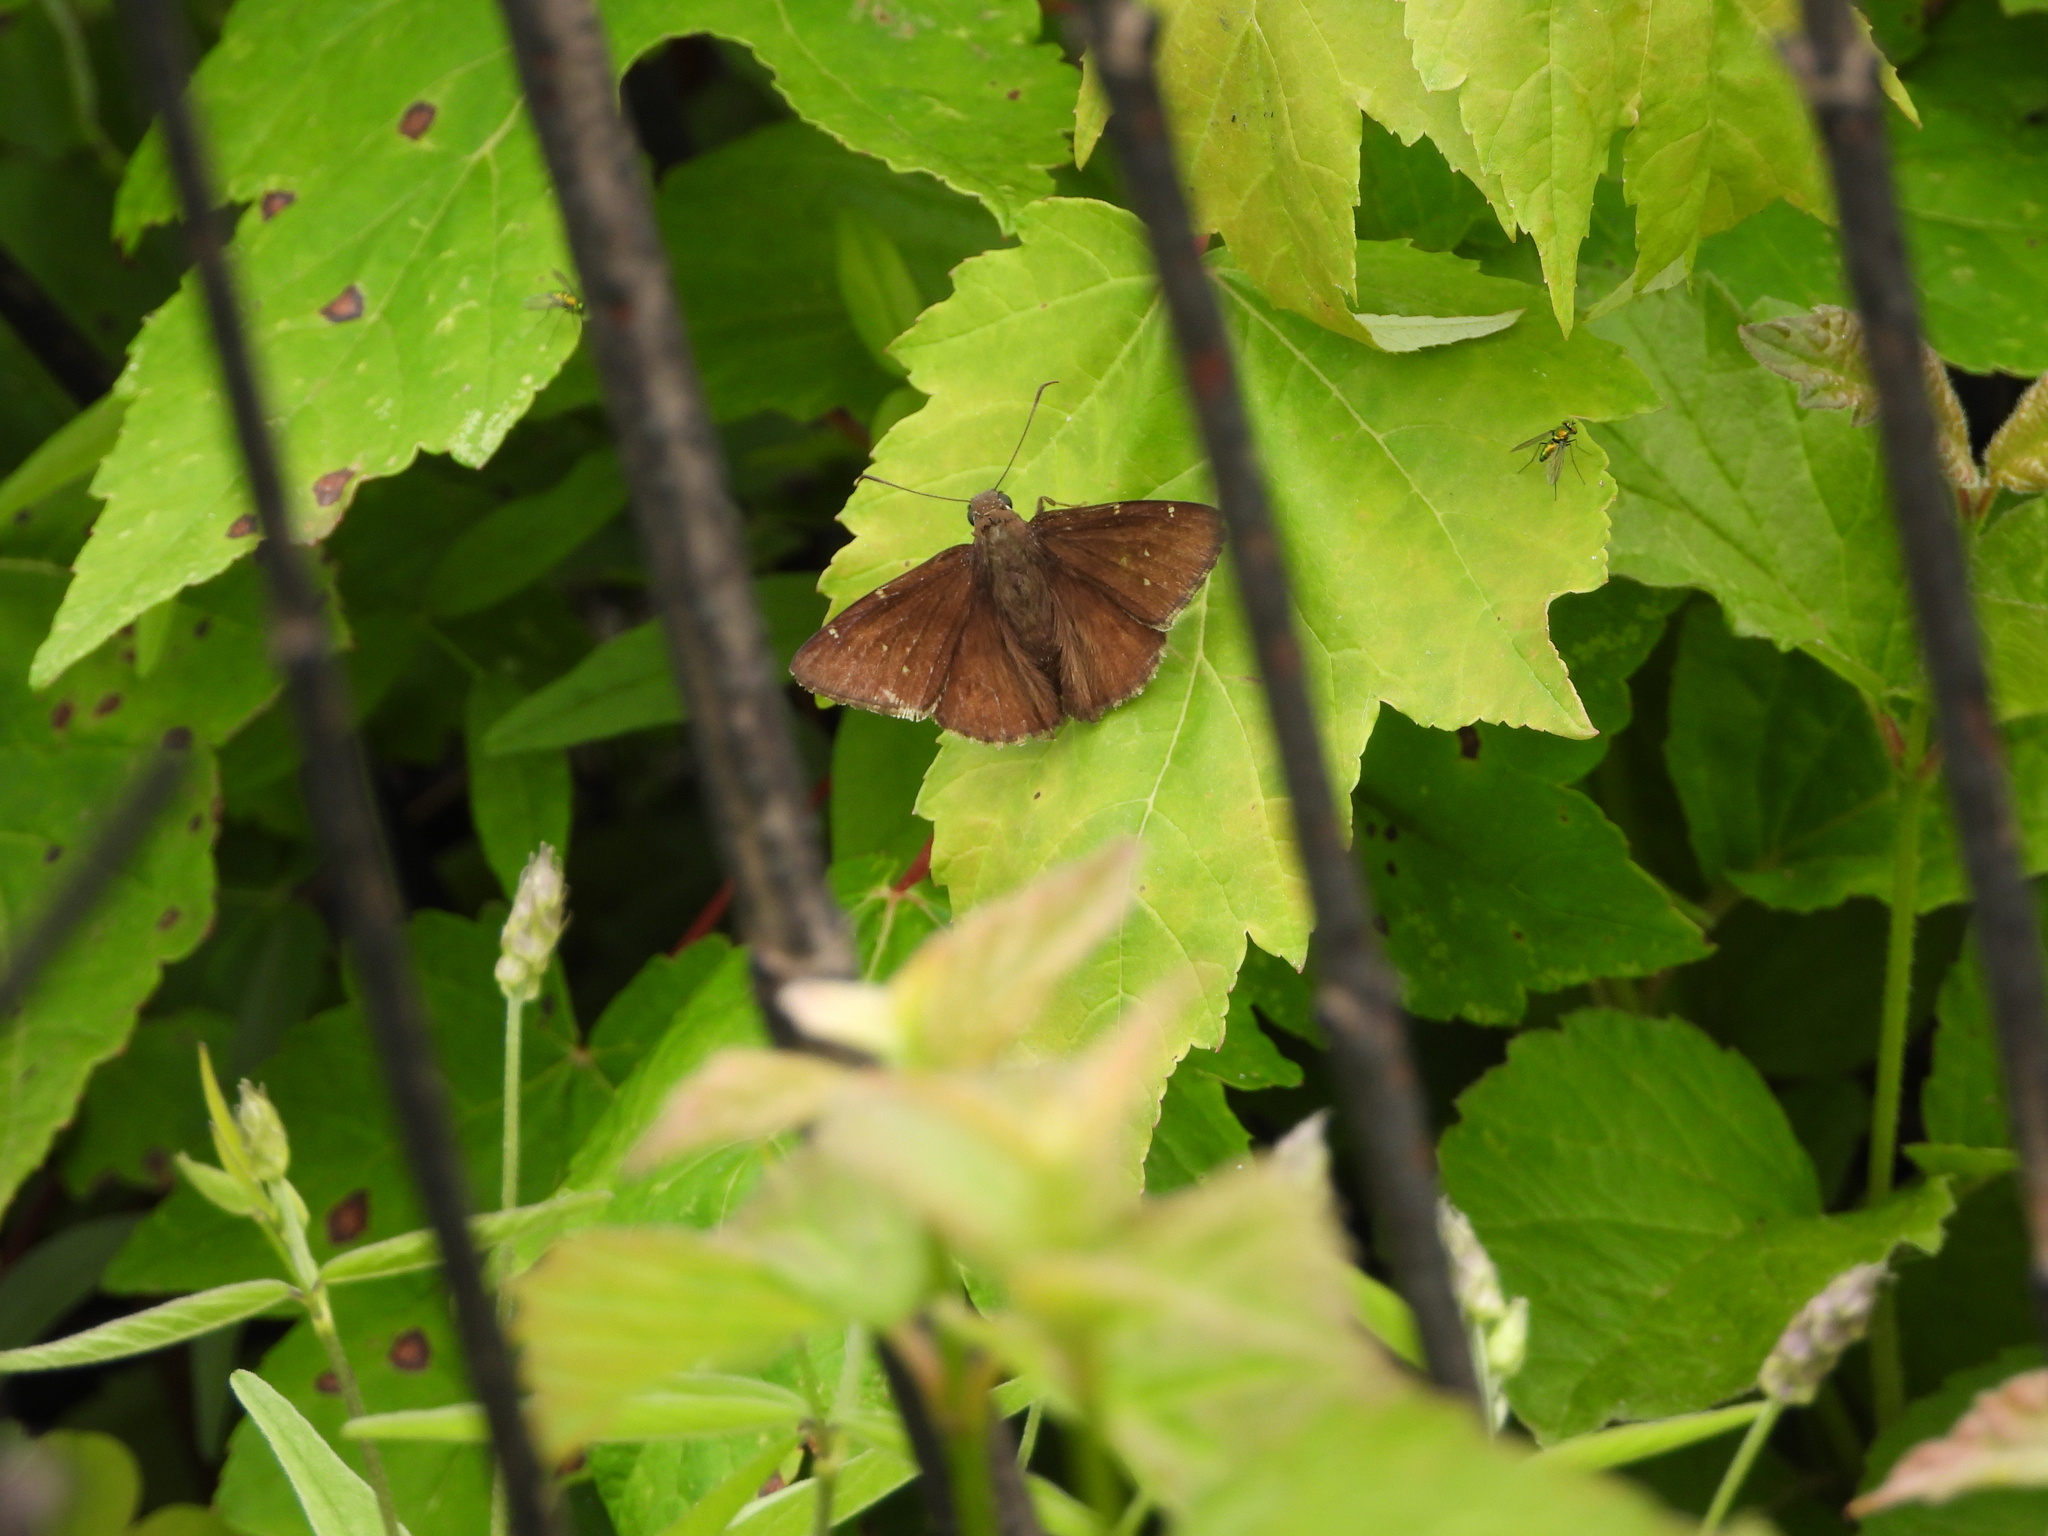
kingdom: Animalia
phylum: Arthropoda
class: Insecta
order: Lepidoptera
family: Hesperiidae
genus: Thorybes
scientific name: Thorybes pylades
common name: Northern cloudywing
